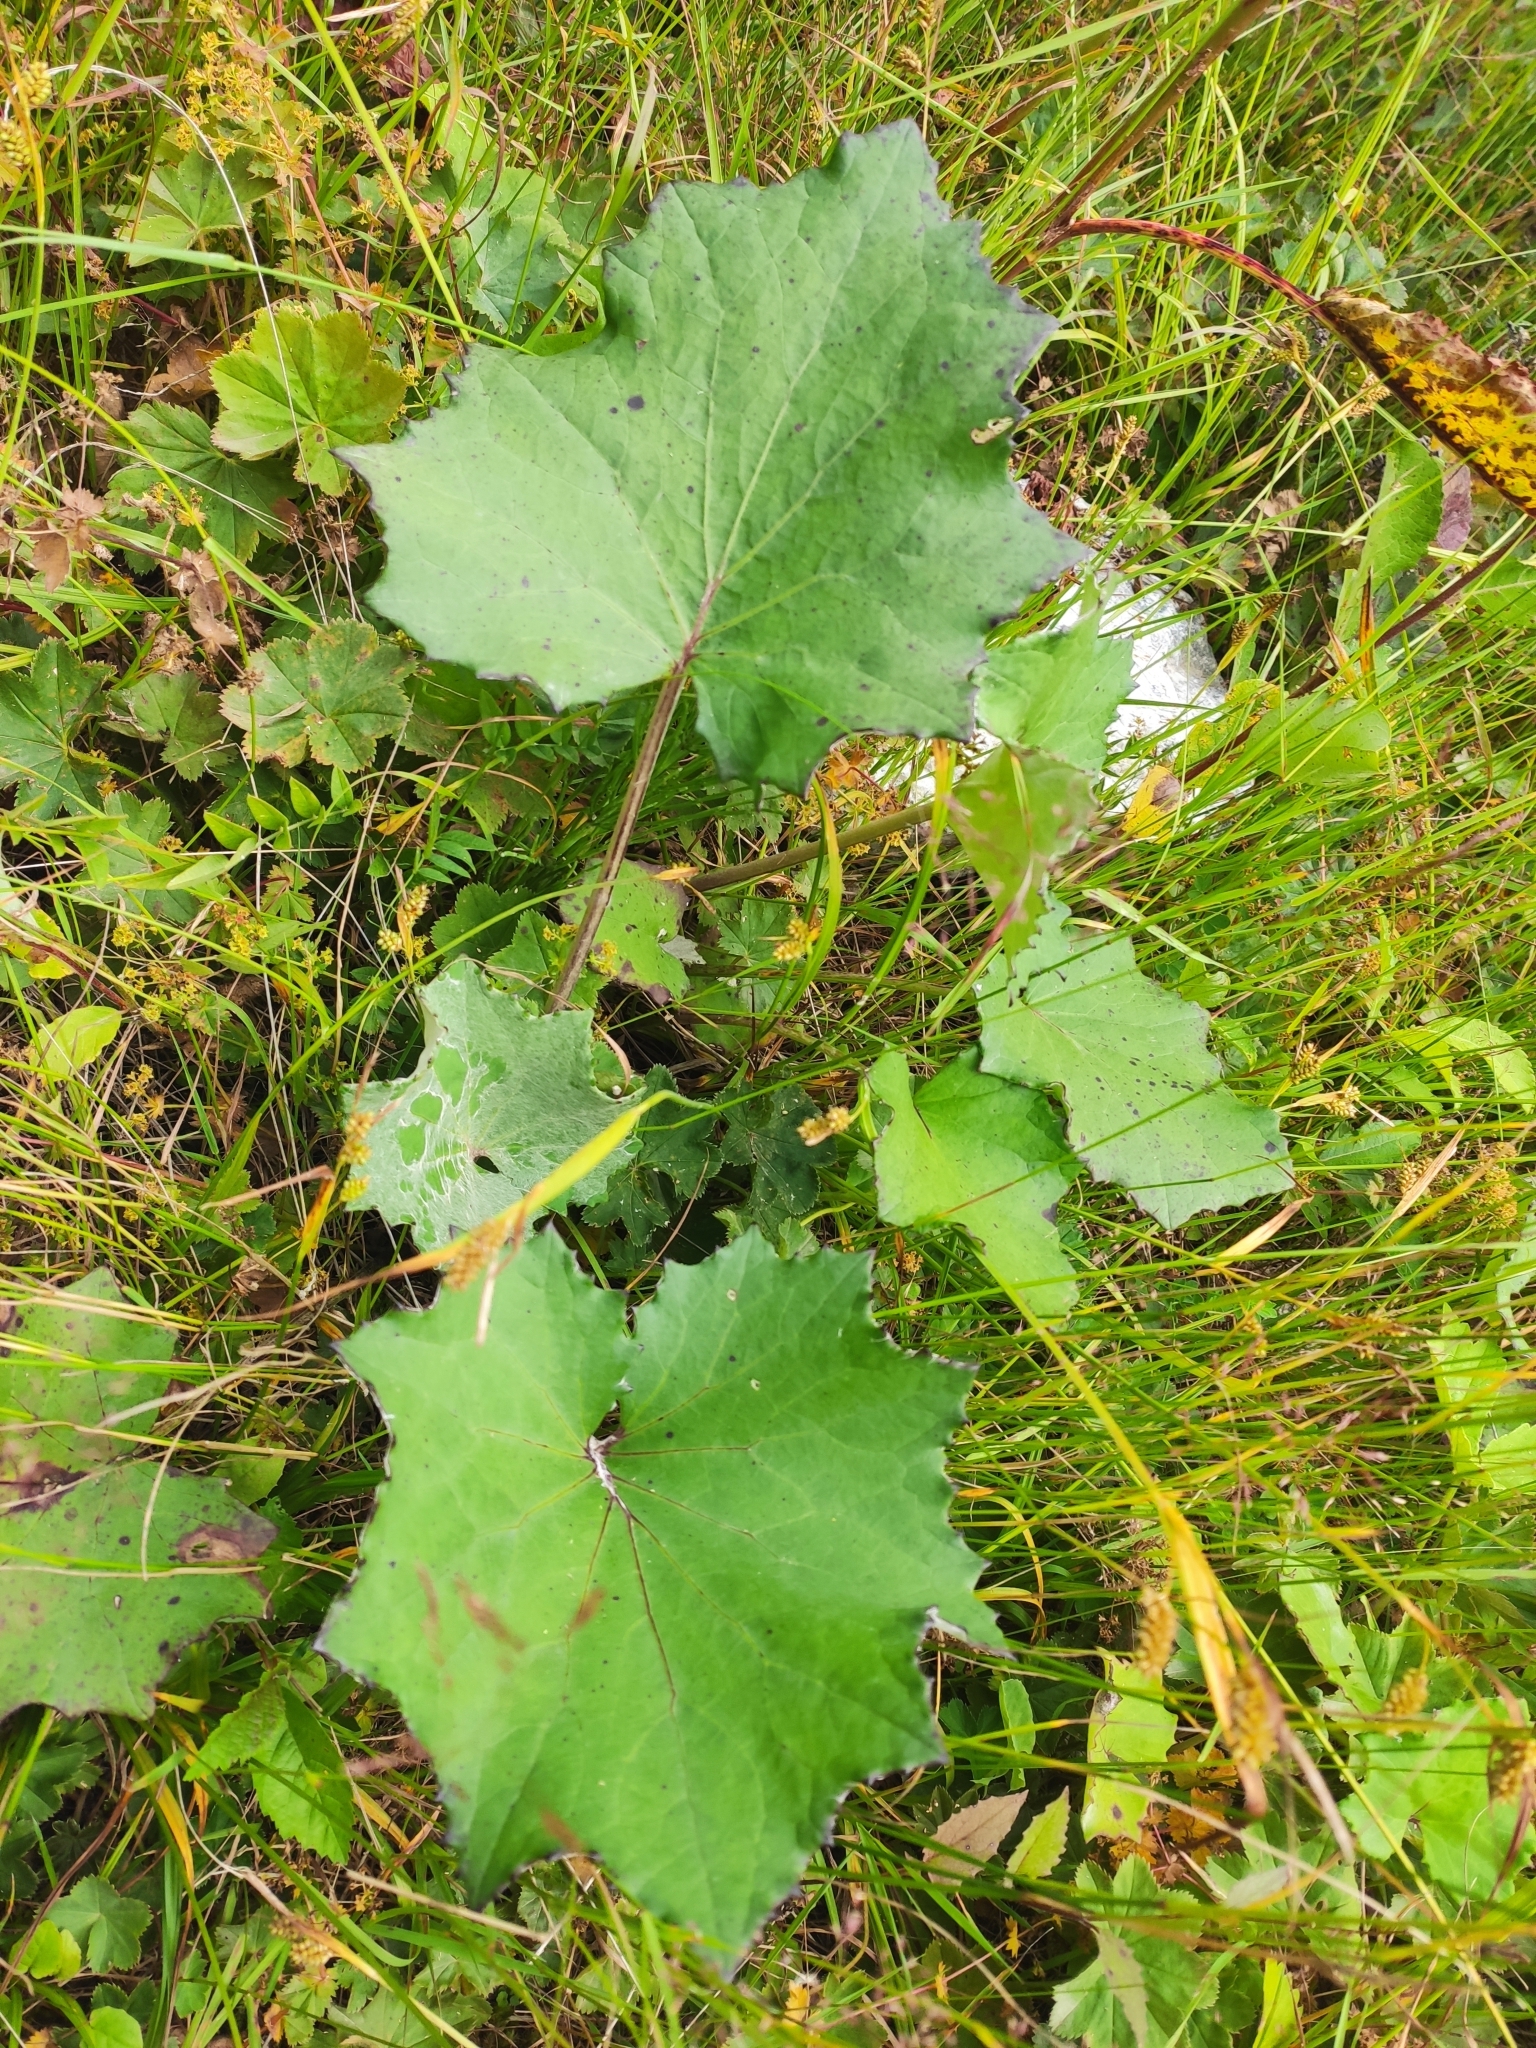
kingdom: Plantae
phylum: Tracheophyta
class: Magnoliopsida
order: Asterales
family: Asteraceae
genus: Tussilago
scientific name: Tussilago farfara
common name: Coltsfoot
